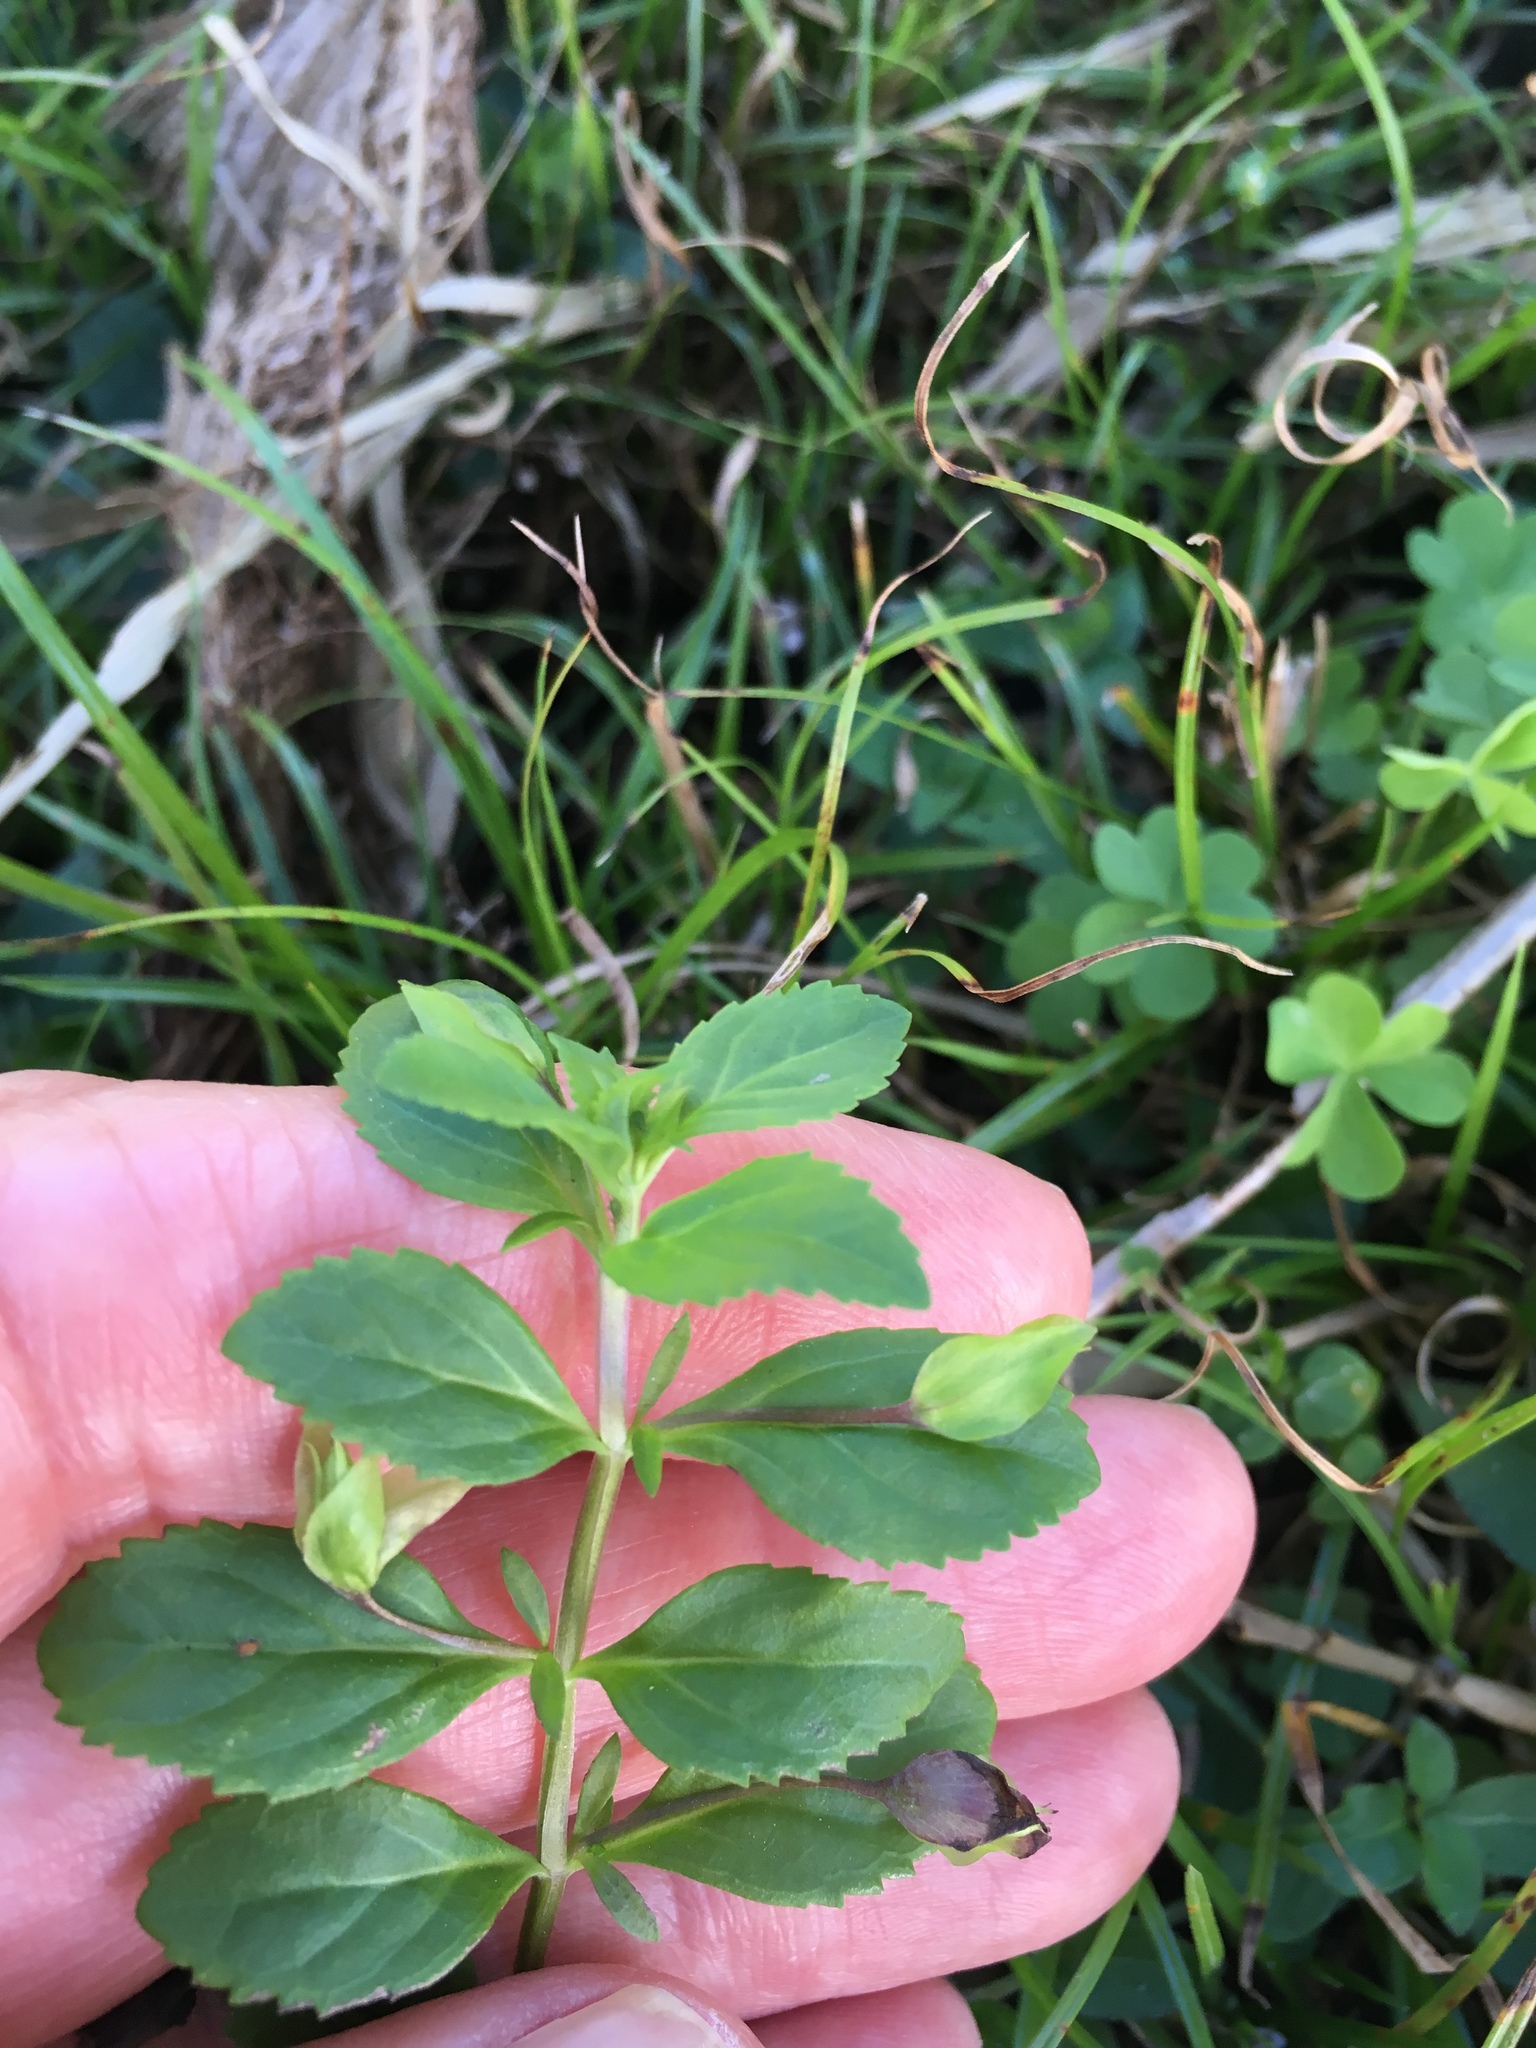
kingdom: Plantae
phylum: Tracheophyta
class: Magnoliopsida
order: Lamiales
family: Plantaginaceae
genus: Mecardonia
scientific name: Mecardonia procumbens
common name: Baby jump-up
